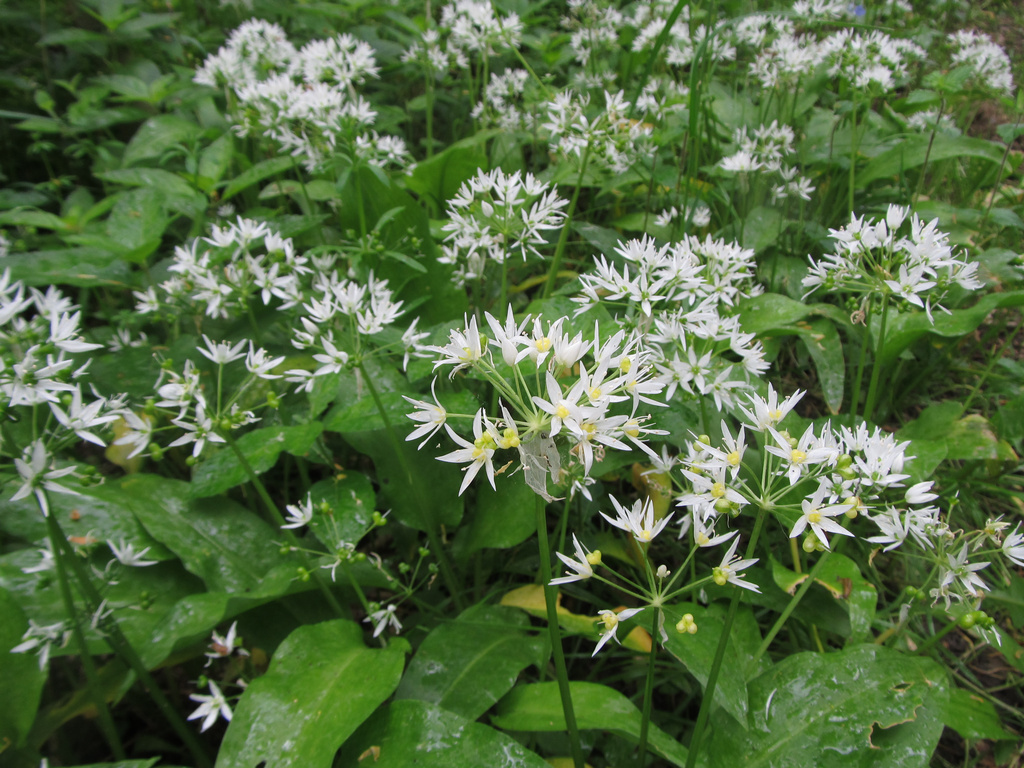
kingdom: Plantae
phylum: Tracheophyta
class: Liliopsida
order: Asparagales
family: Amaryllidaceae
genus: Allium
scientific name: Allium ursinum
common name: Ramsons
